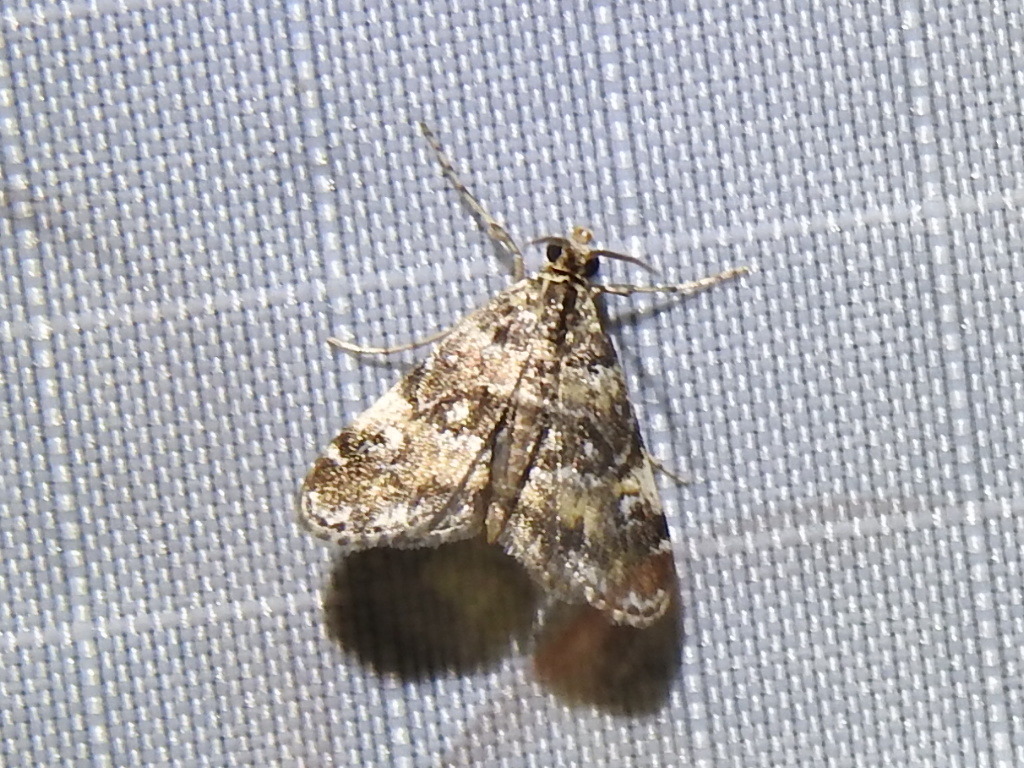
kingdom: Animalia
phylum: Arthropoda
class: Insecta
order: Lepidoptera
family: Crambidae
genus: Elophila
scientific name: Elophila obliteralis
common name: Waterlily leafcutter moth
